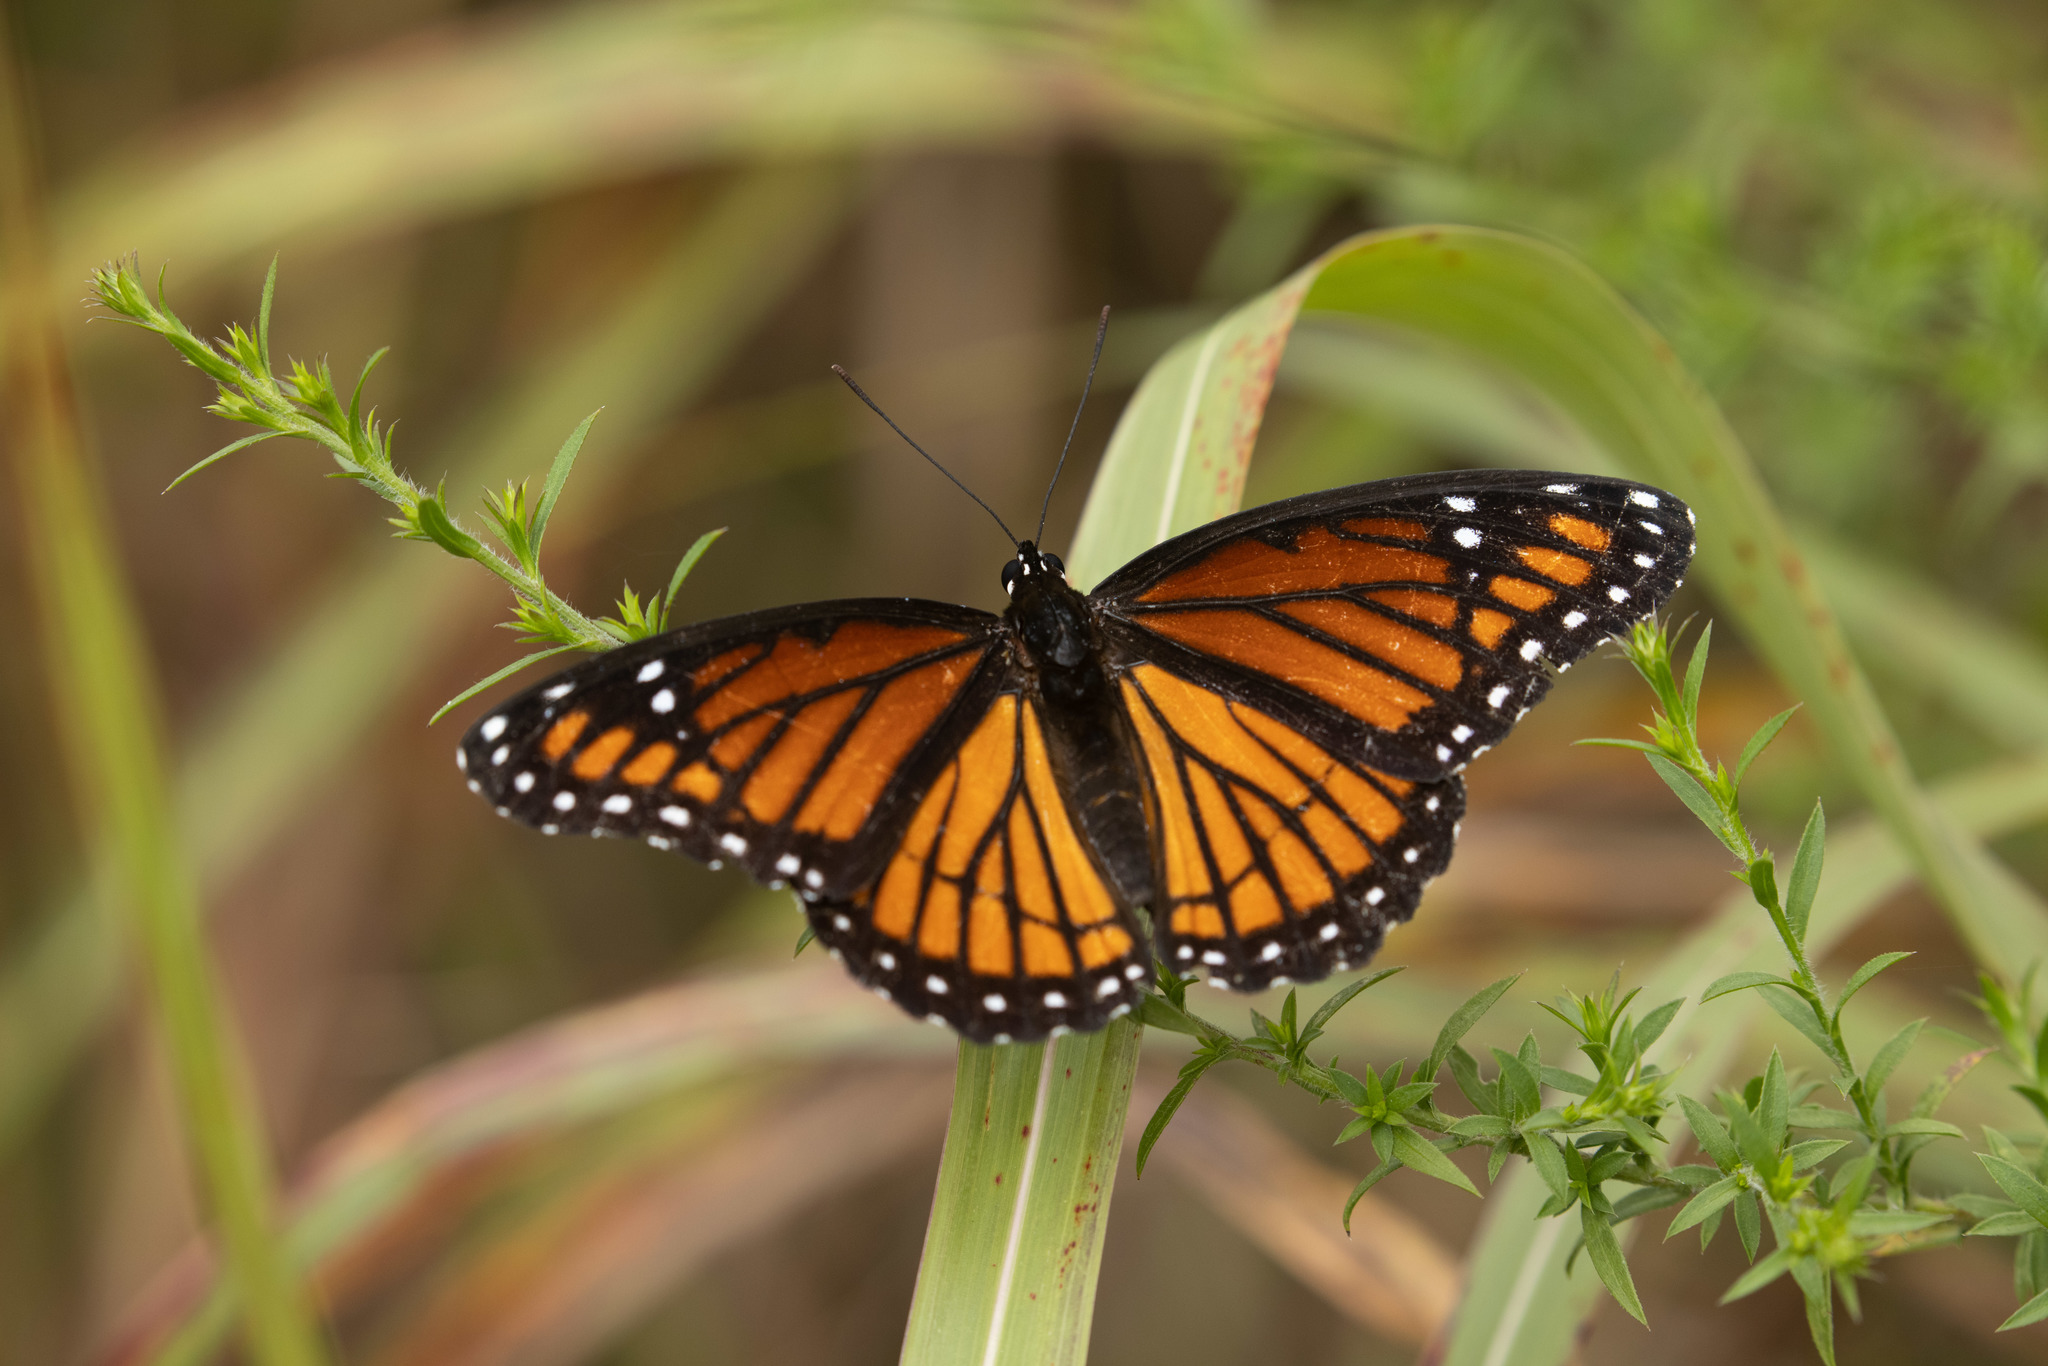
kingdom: Animalia
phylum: Arthropoda
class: Insecta
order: Lepidoptera
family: Nymphalidae
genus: Limenitis
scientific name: Limenitis archippus
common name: Viceroy
